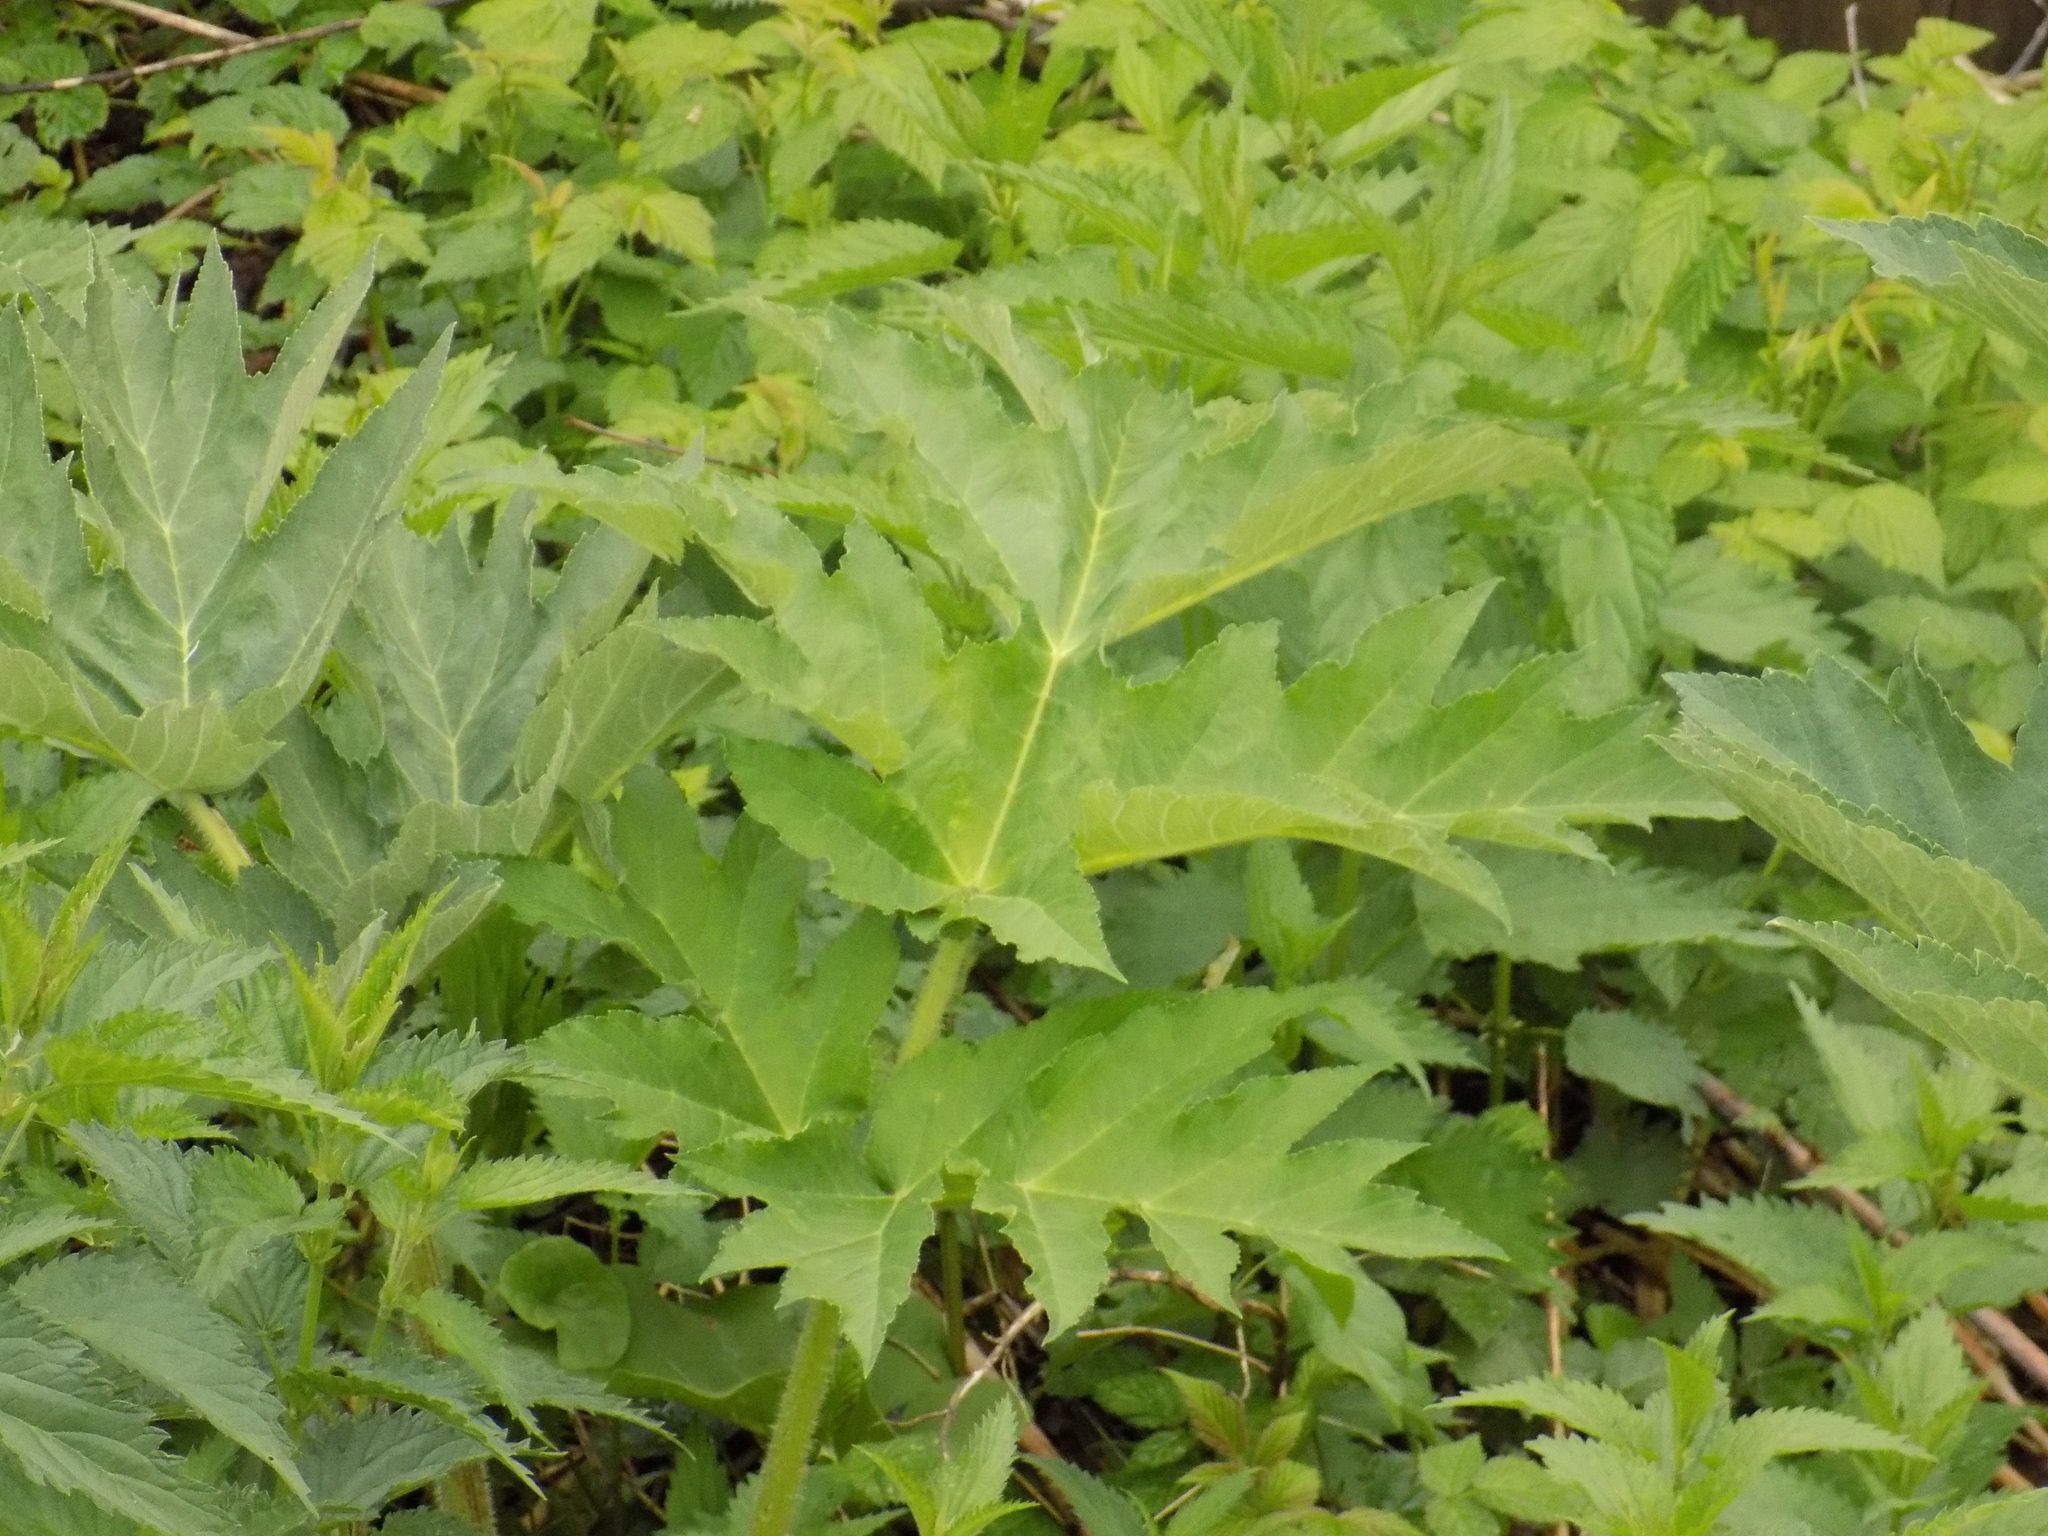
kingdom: Plantae
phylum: Tracheophyta
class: Magnoliopsida
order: Apiales
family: Apiaceae
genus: Heracleum
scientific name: Heracleum dissectum
